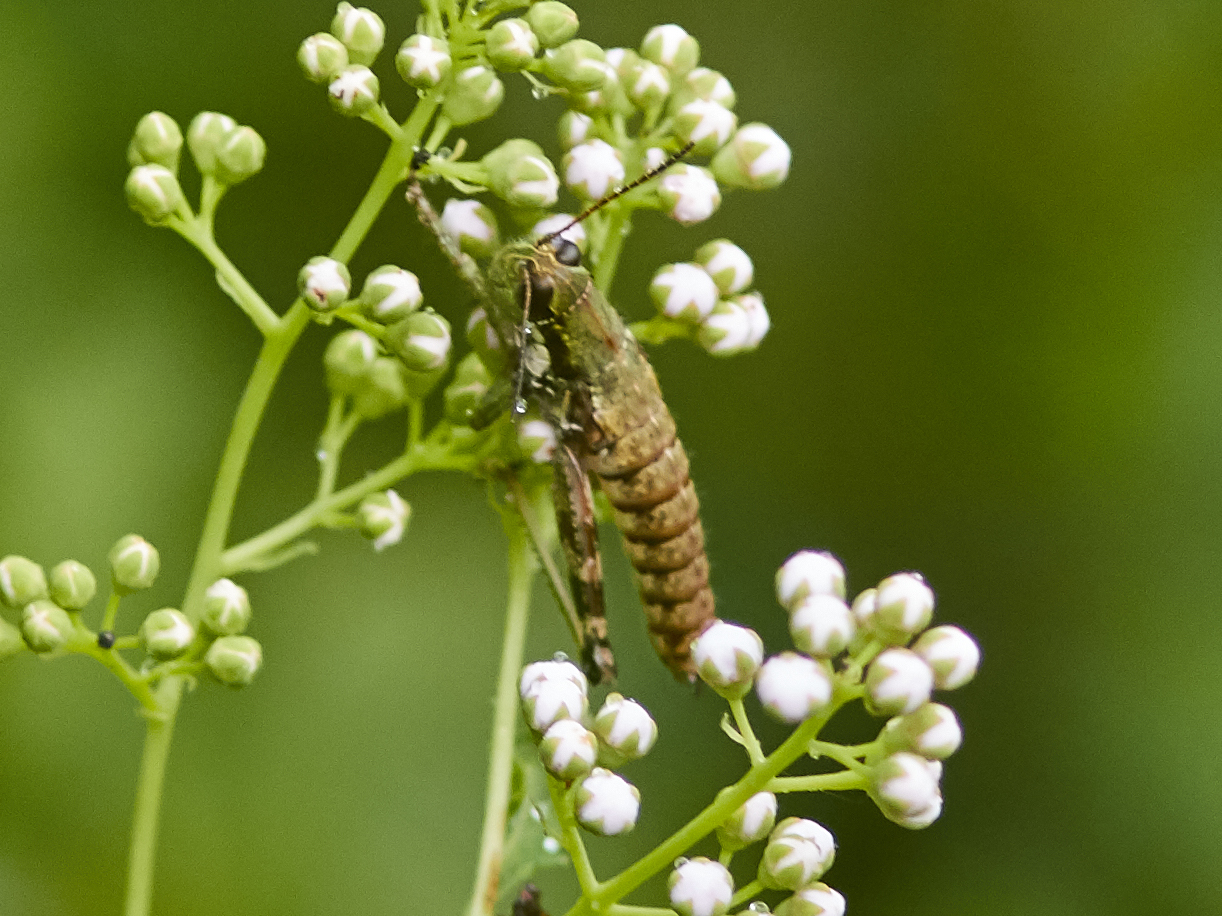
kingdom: Animalia
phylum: Arthropoda
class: Insecta
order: Orthoptera
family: Acrididae
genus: Booneacris
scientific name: Booneacris glacialis
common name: Wingless mountain grasshopper
